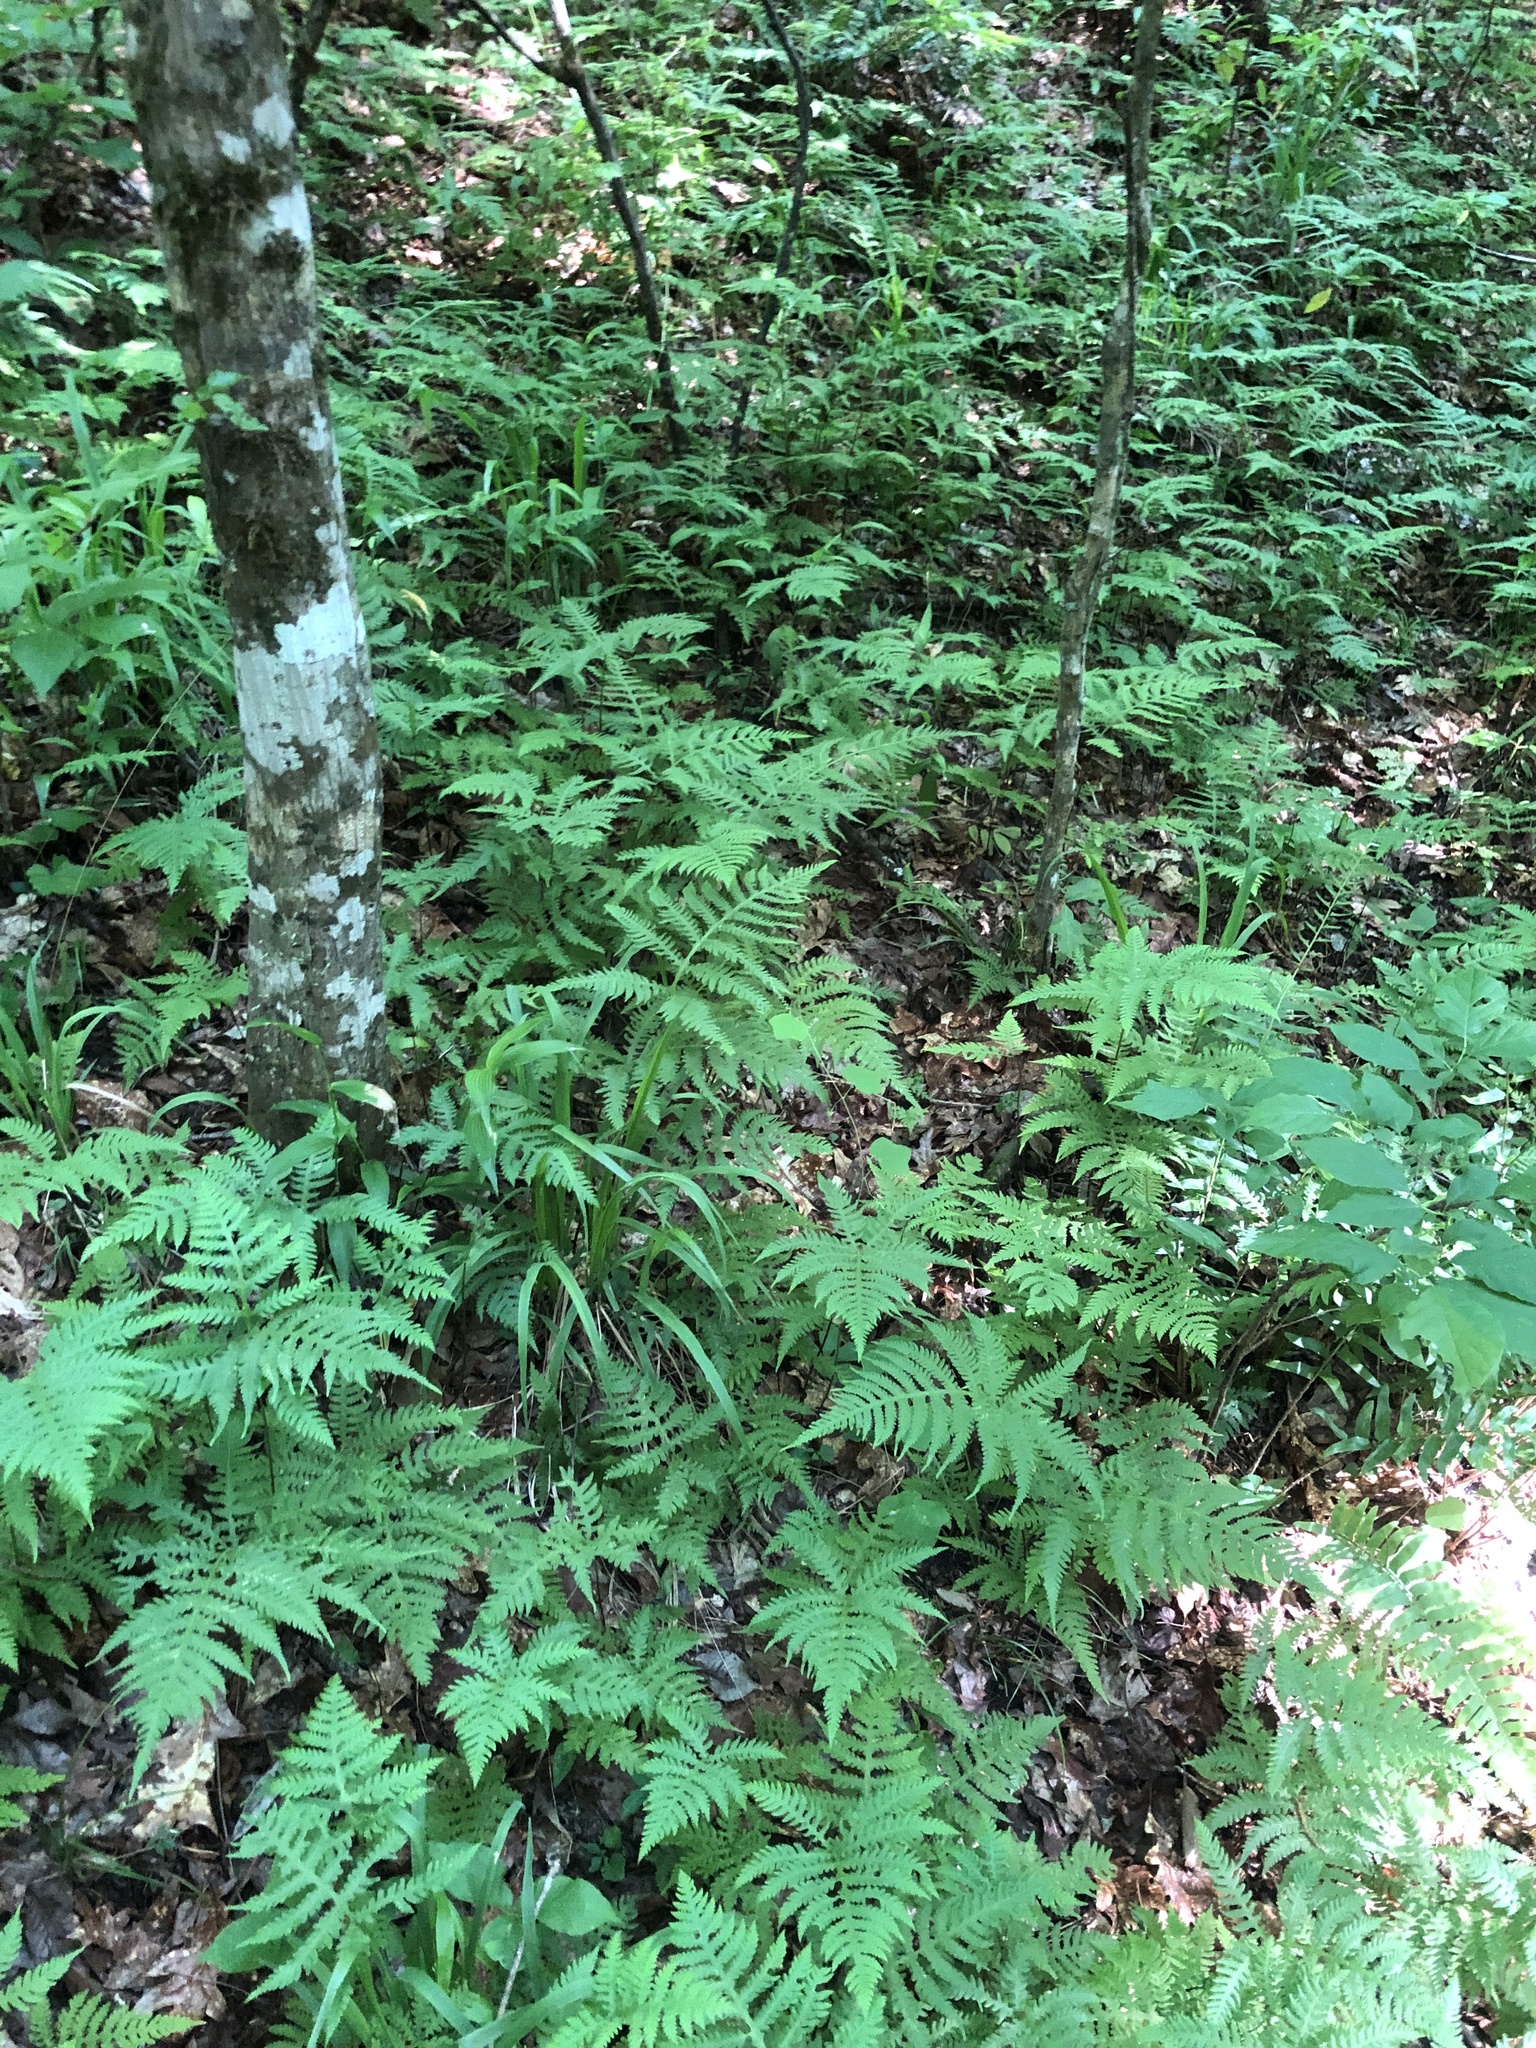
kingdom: Plantae
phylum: Tracheophyta
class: Polypodiopsida
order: Polypodiales
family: Thelypteridaceae
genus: Phegopteris
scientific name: Phegopteris hexagonoptera
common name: Broad beech fern
